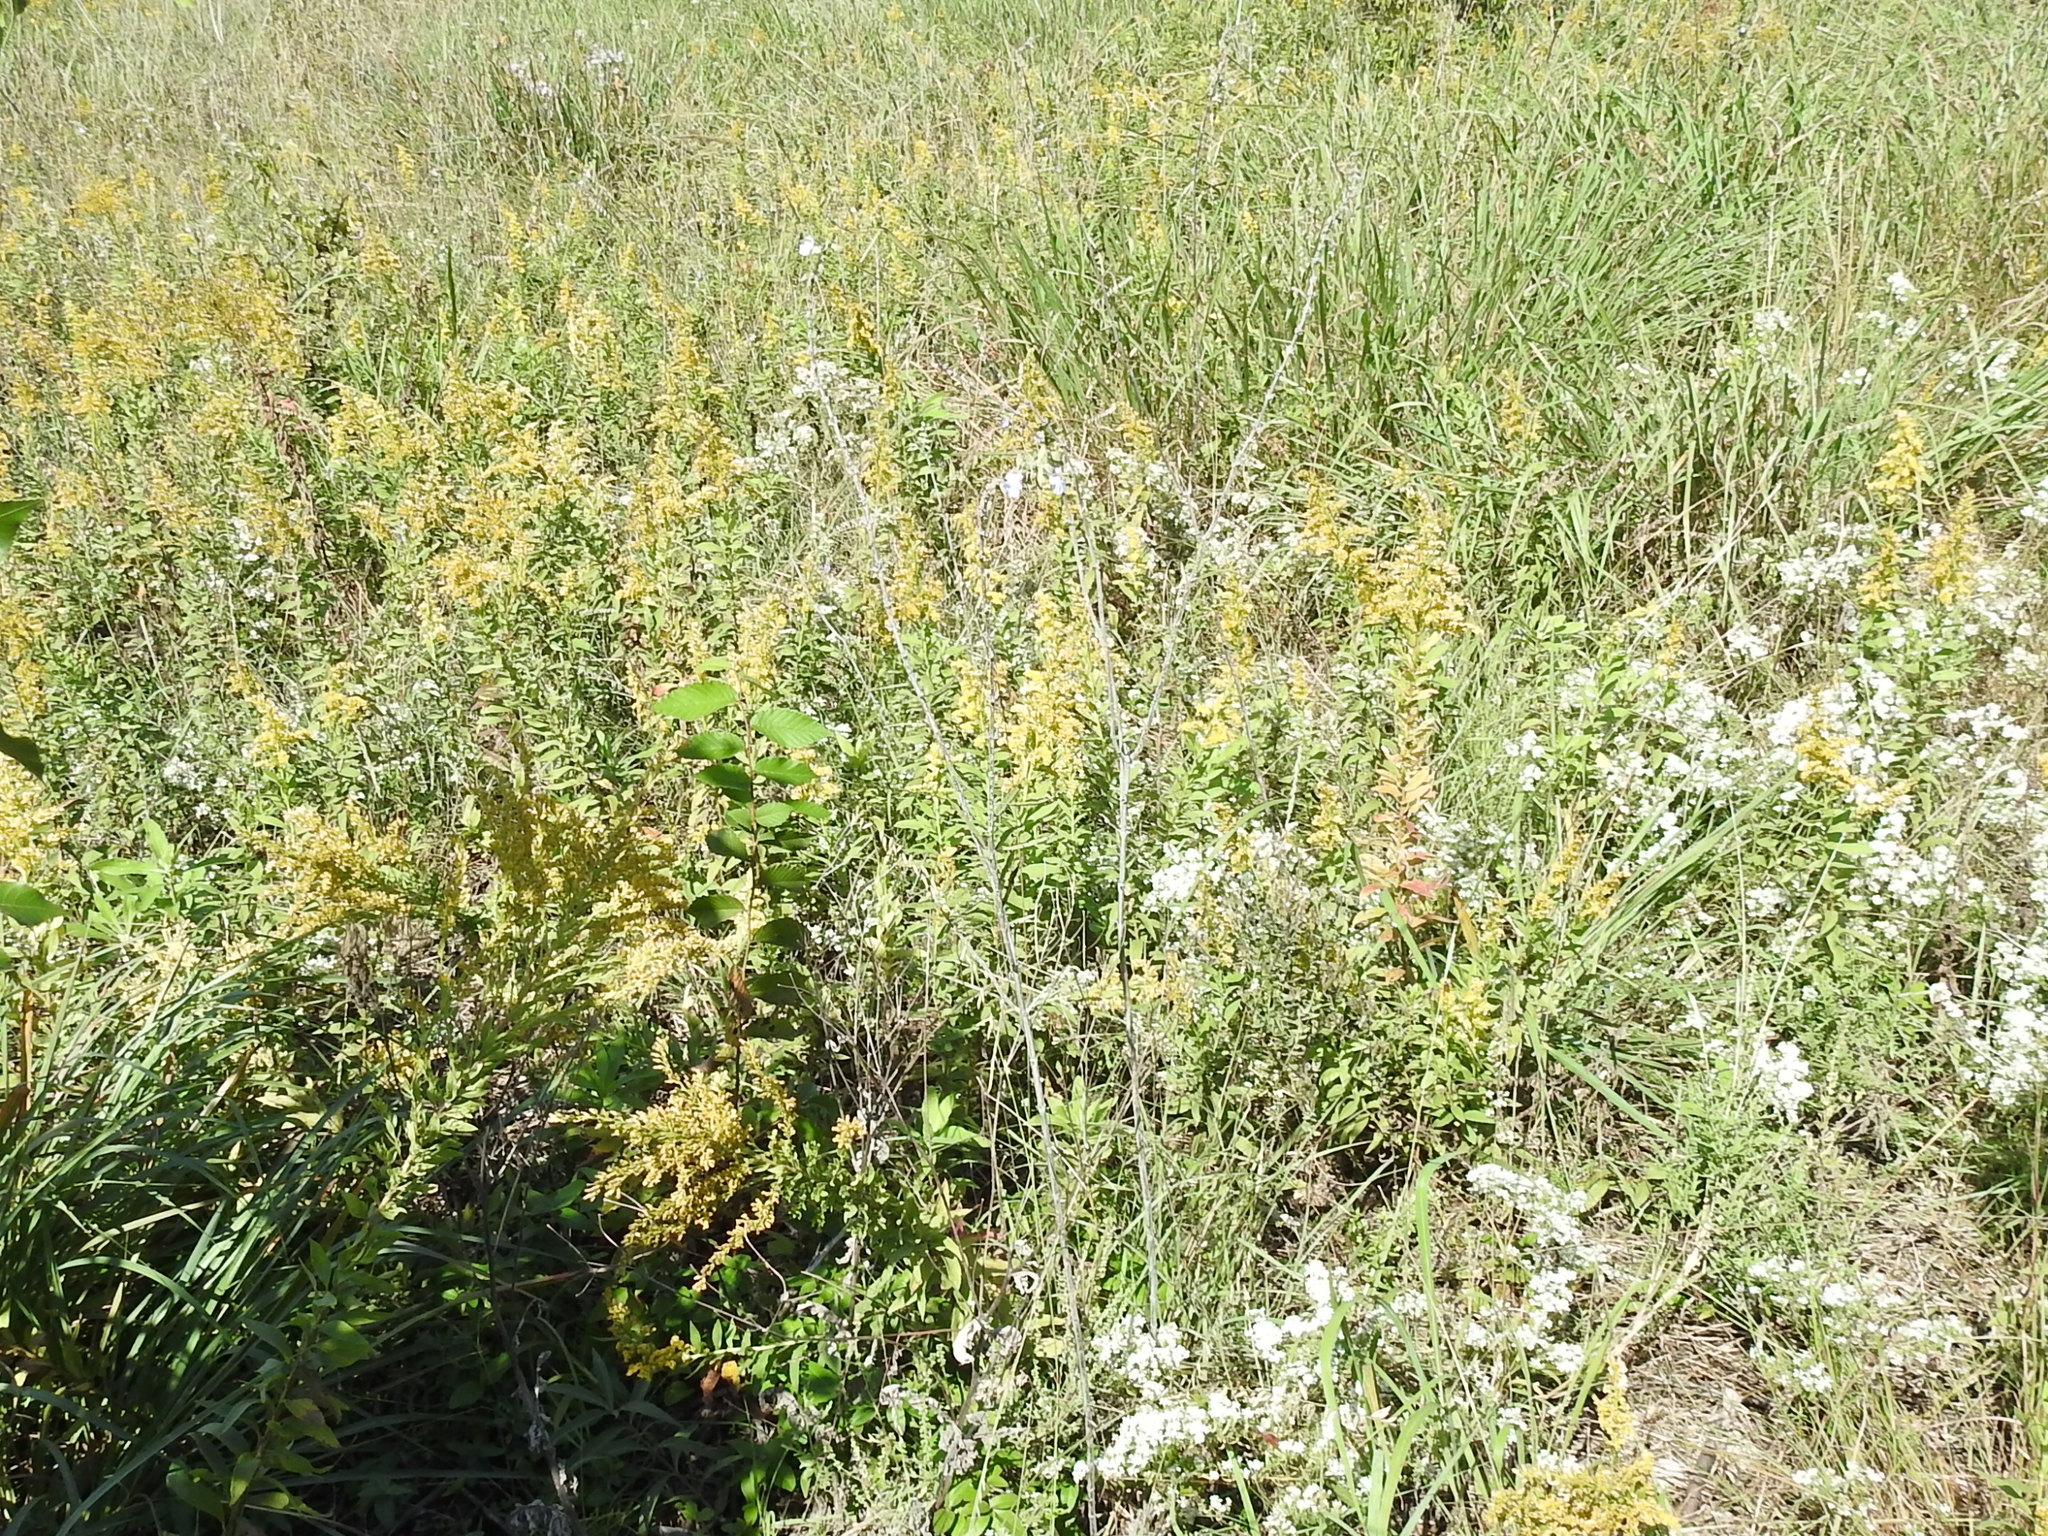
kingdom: Plantae
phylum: Tracheophyta
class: Magnoliopsida
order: Lamiales
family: Lamiaceae
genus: Salvia
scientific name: Salvia azurea
